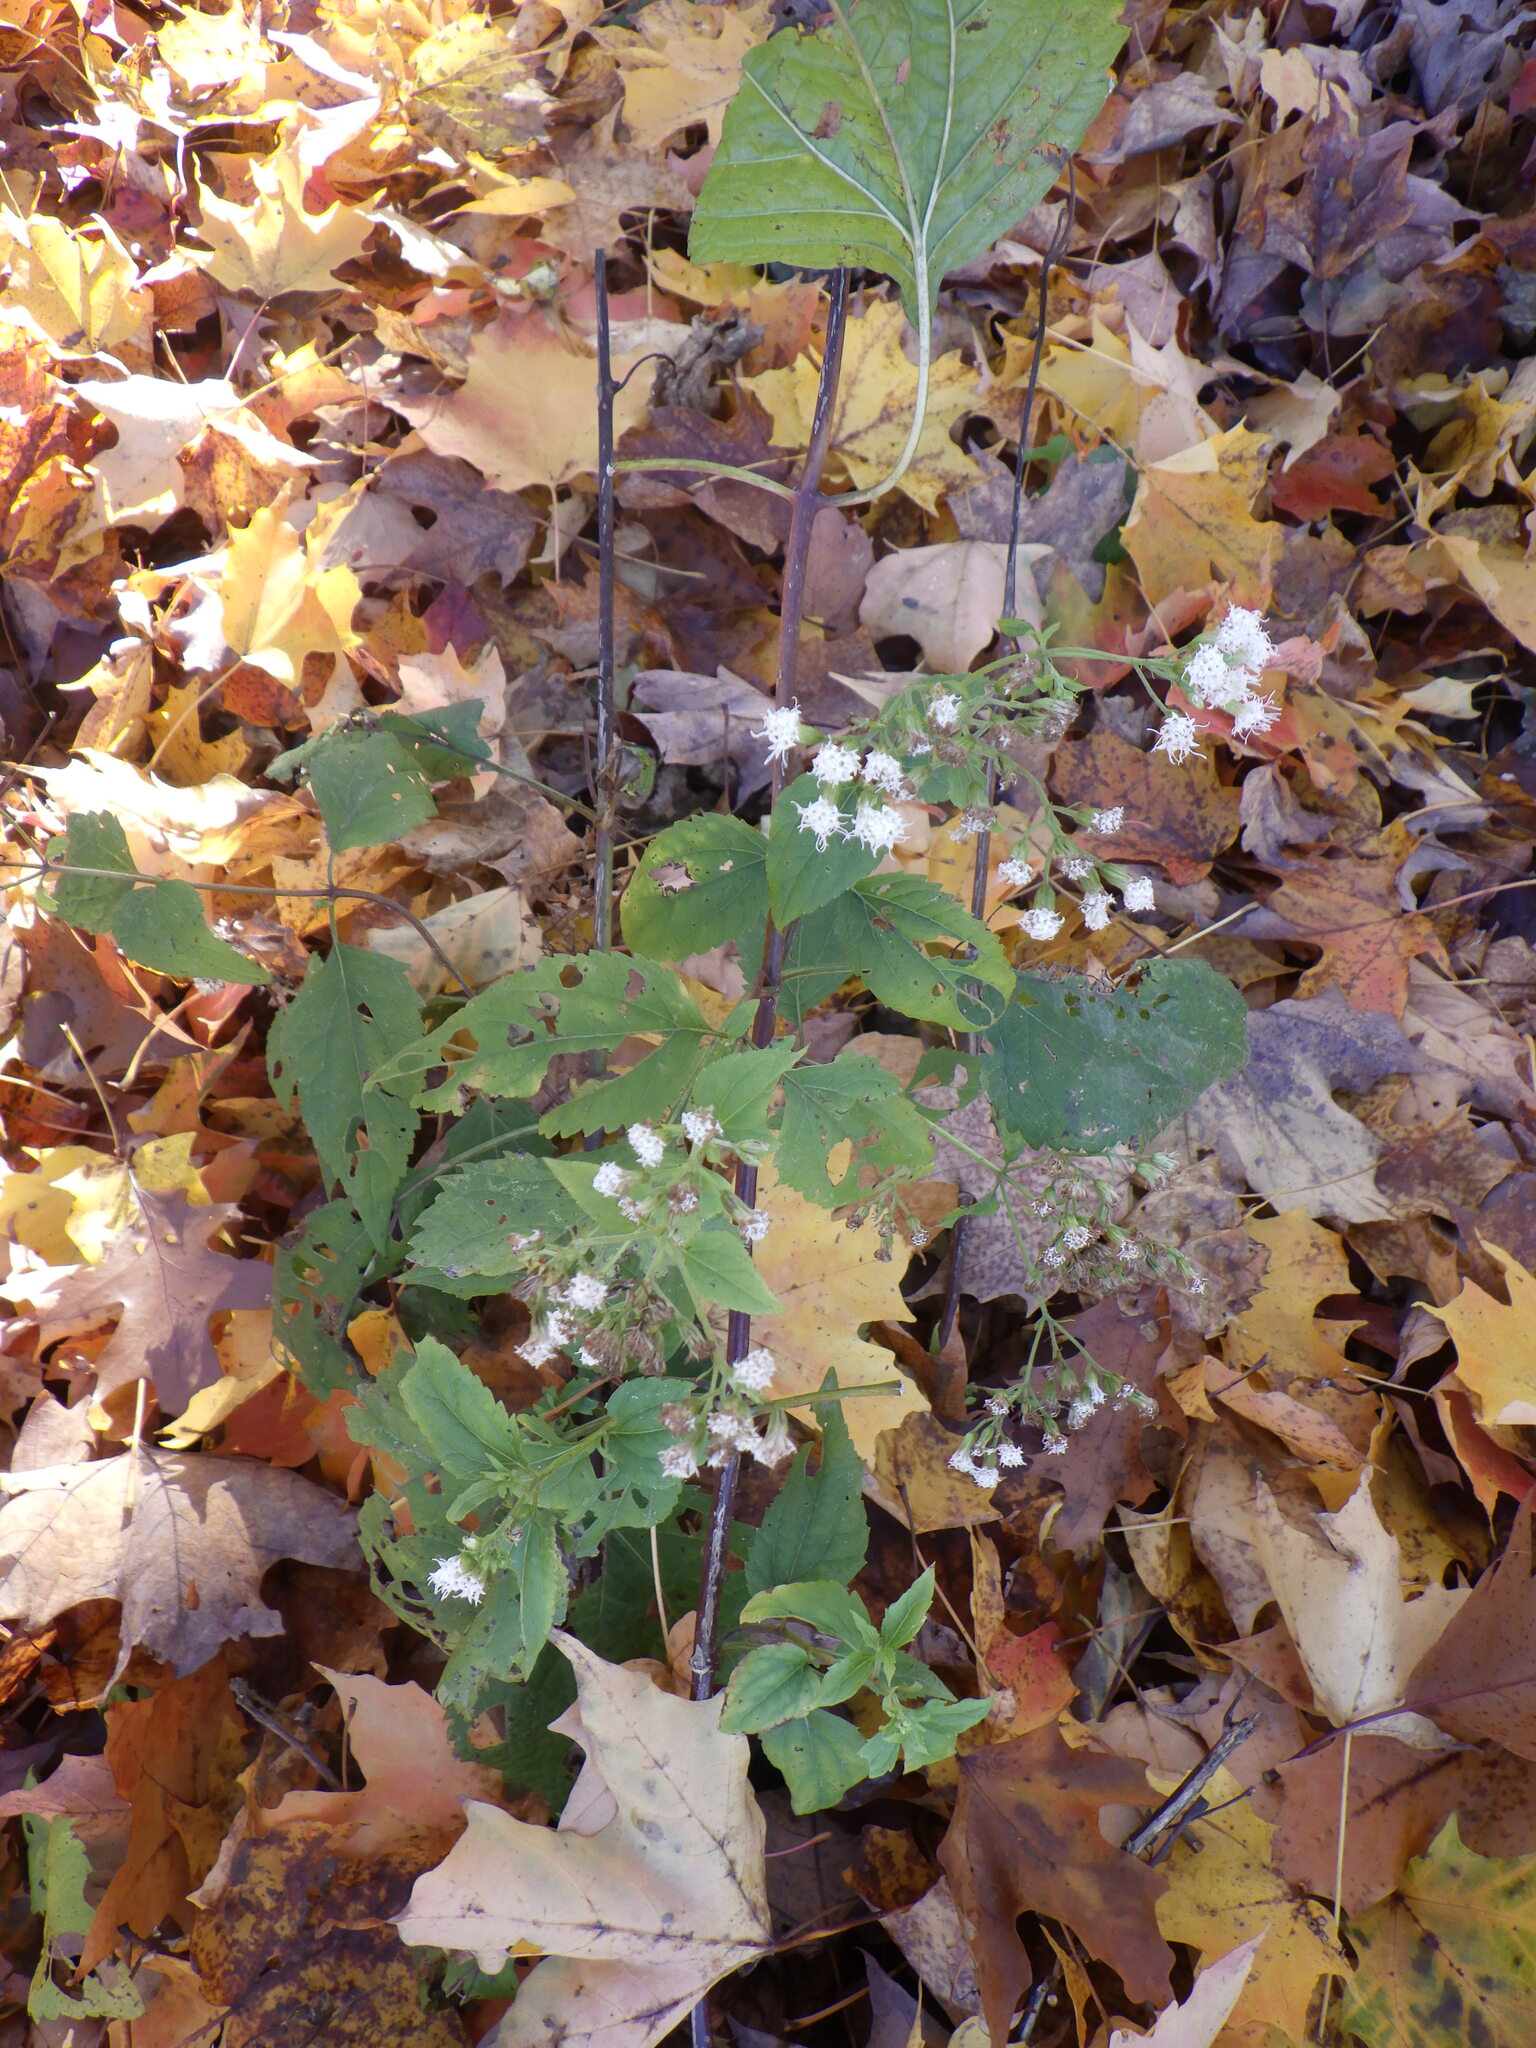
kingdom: Plantae
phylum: Tracheophyta
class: Magnoliopsida
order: Asterales
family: Asteraceae
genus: Ageratina
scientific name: Ageratina altissima
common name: White snakeroot
